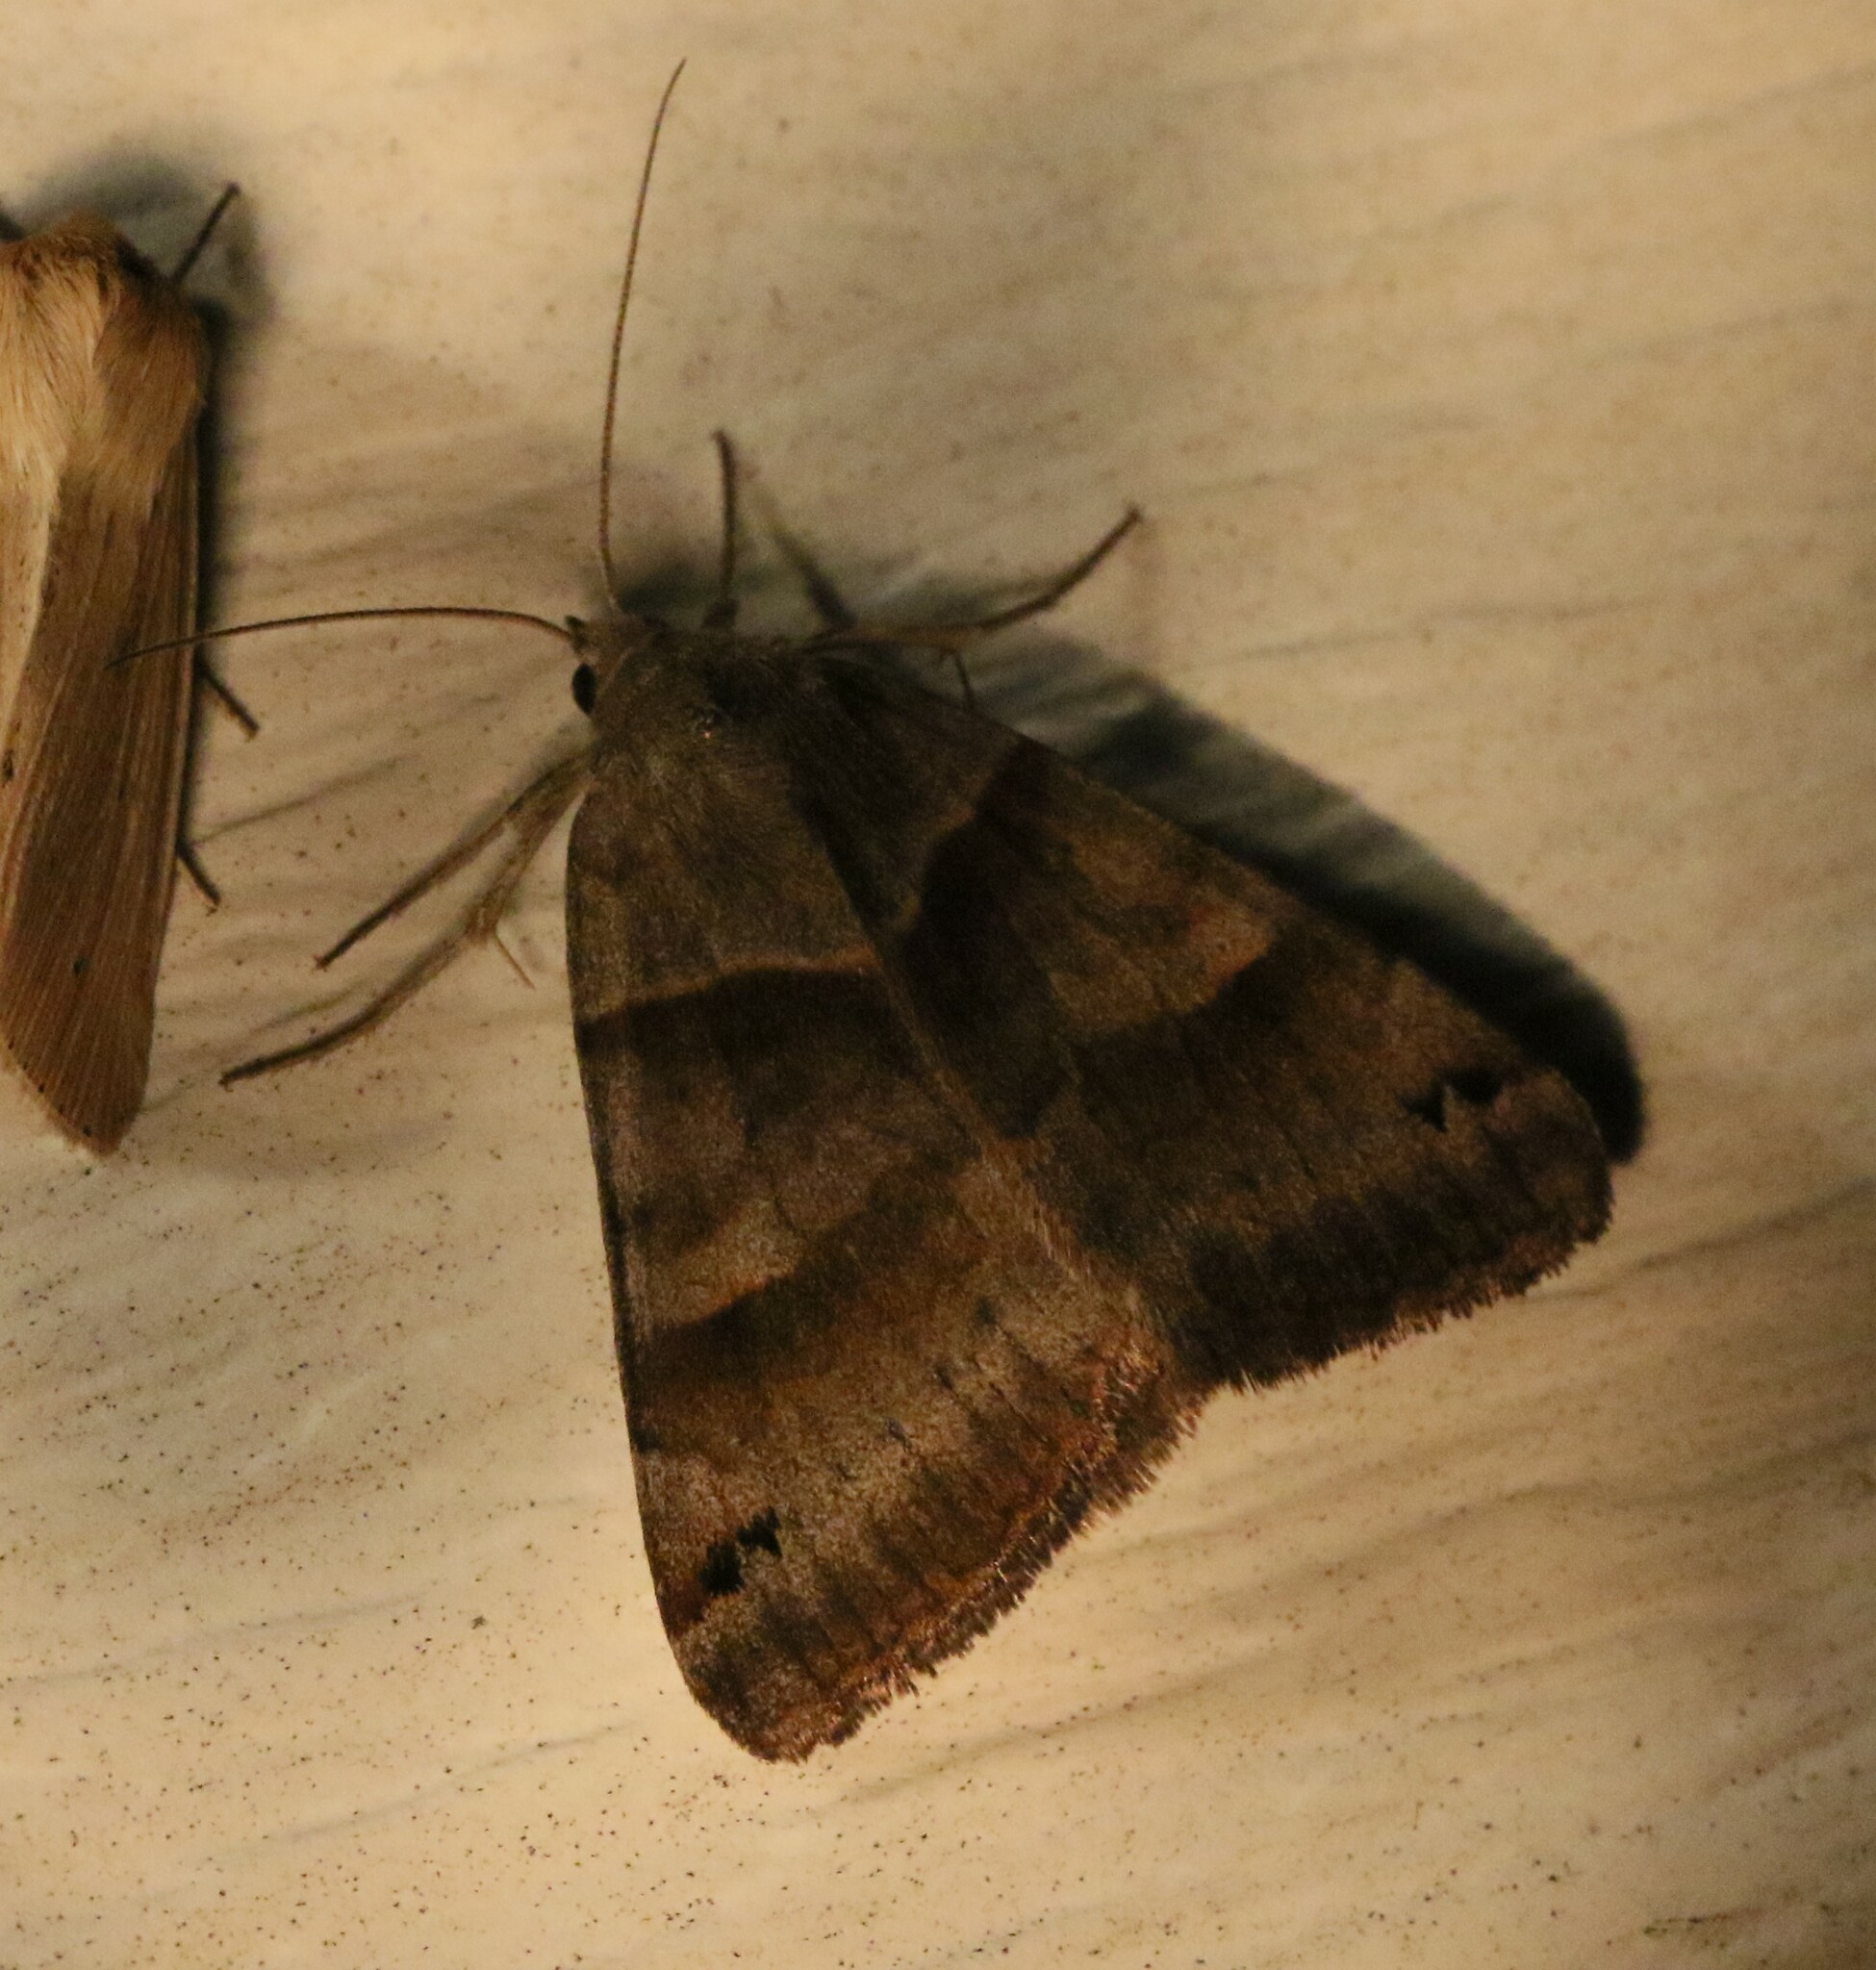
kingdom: Animalia
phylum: Arthropoda
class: Insecta
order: Lepidoptera
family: Erebidae
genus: Caenurgina
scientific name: Caenurgina crassiuscula
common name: Double-barred
